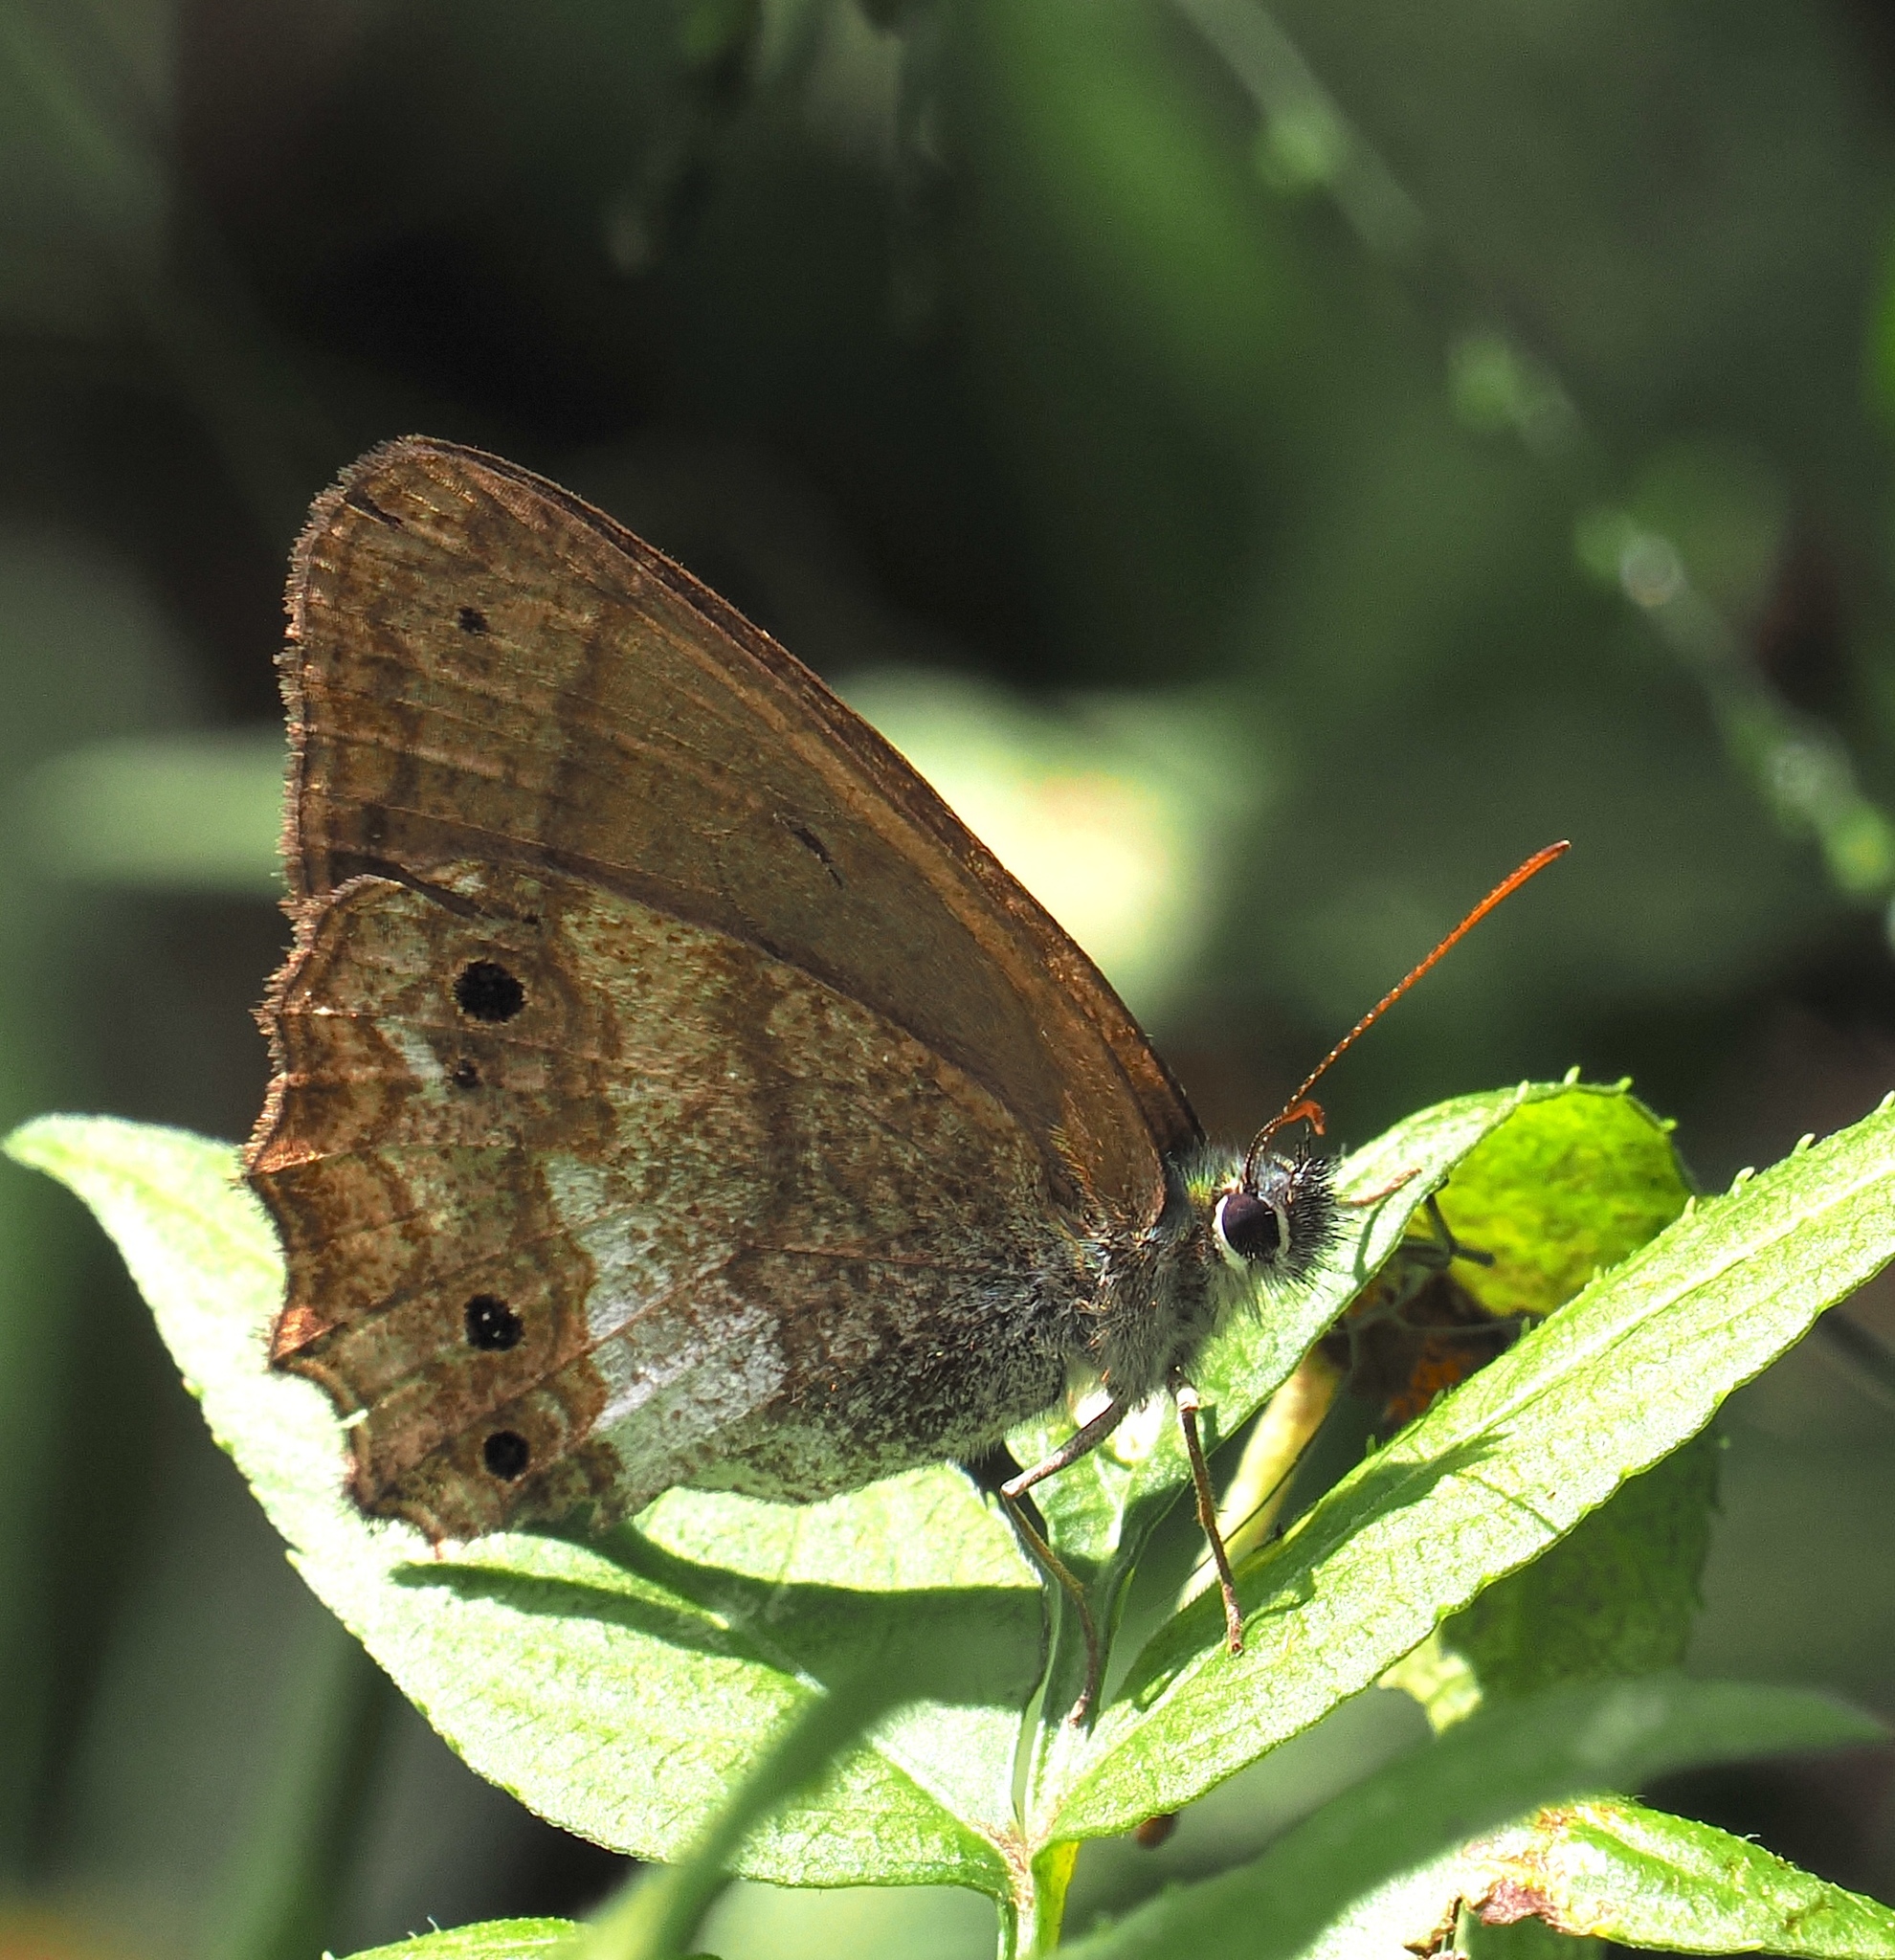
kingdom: Animalia
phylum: Arthropoda
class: Insecta
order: Lepidoptera
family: Nymphalidae
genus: Carminda
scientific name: Carminda griseldis
